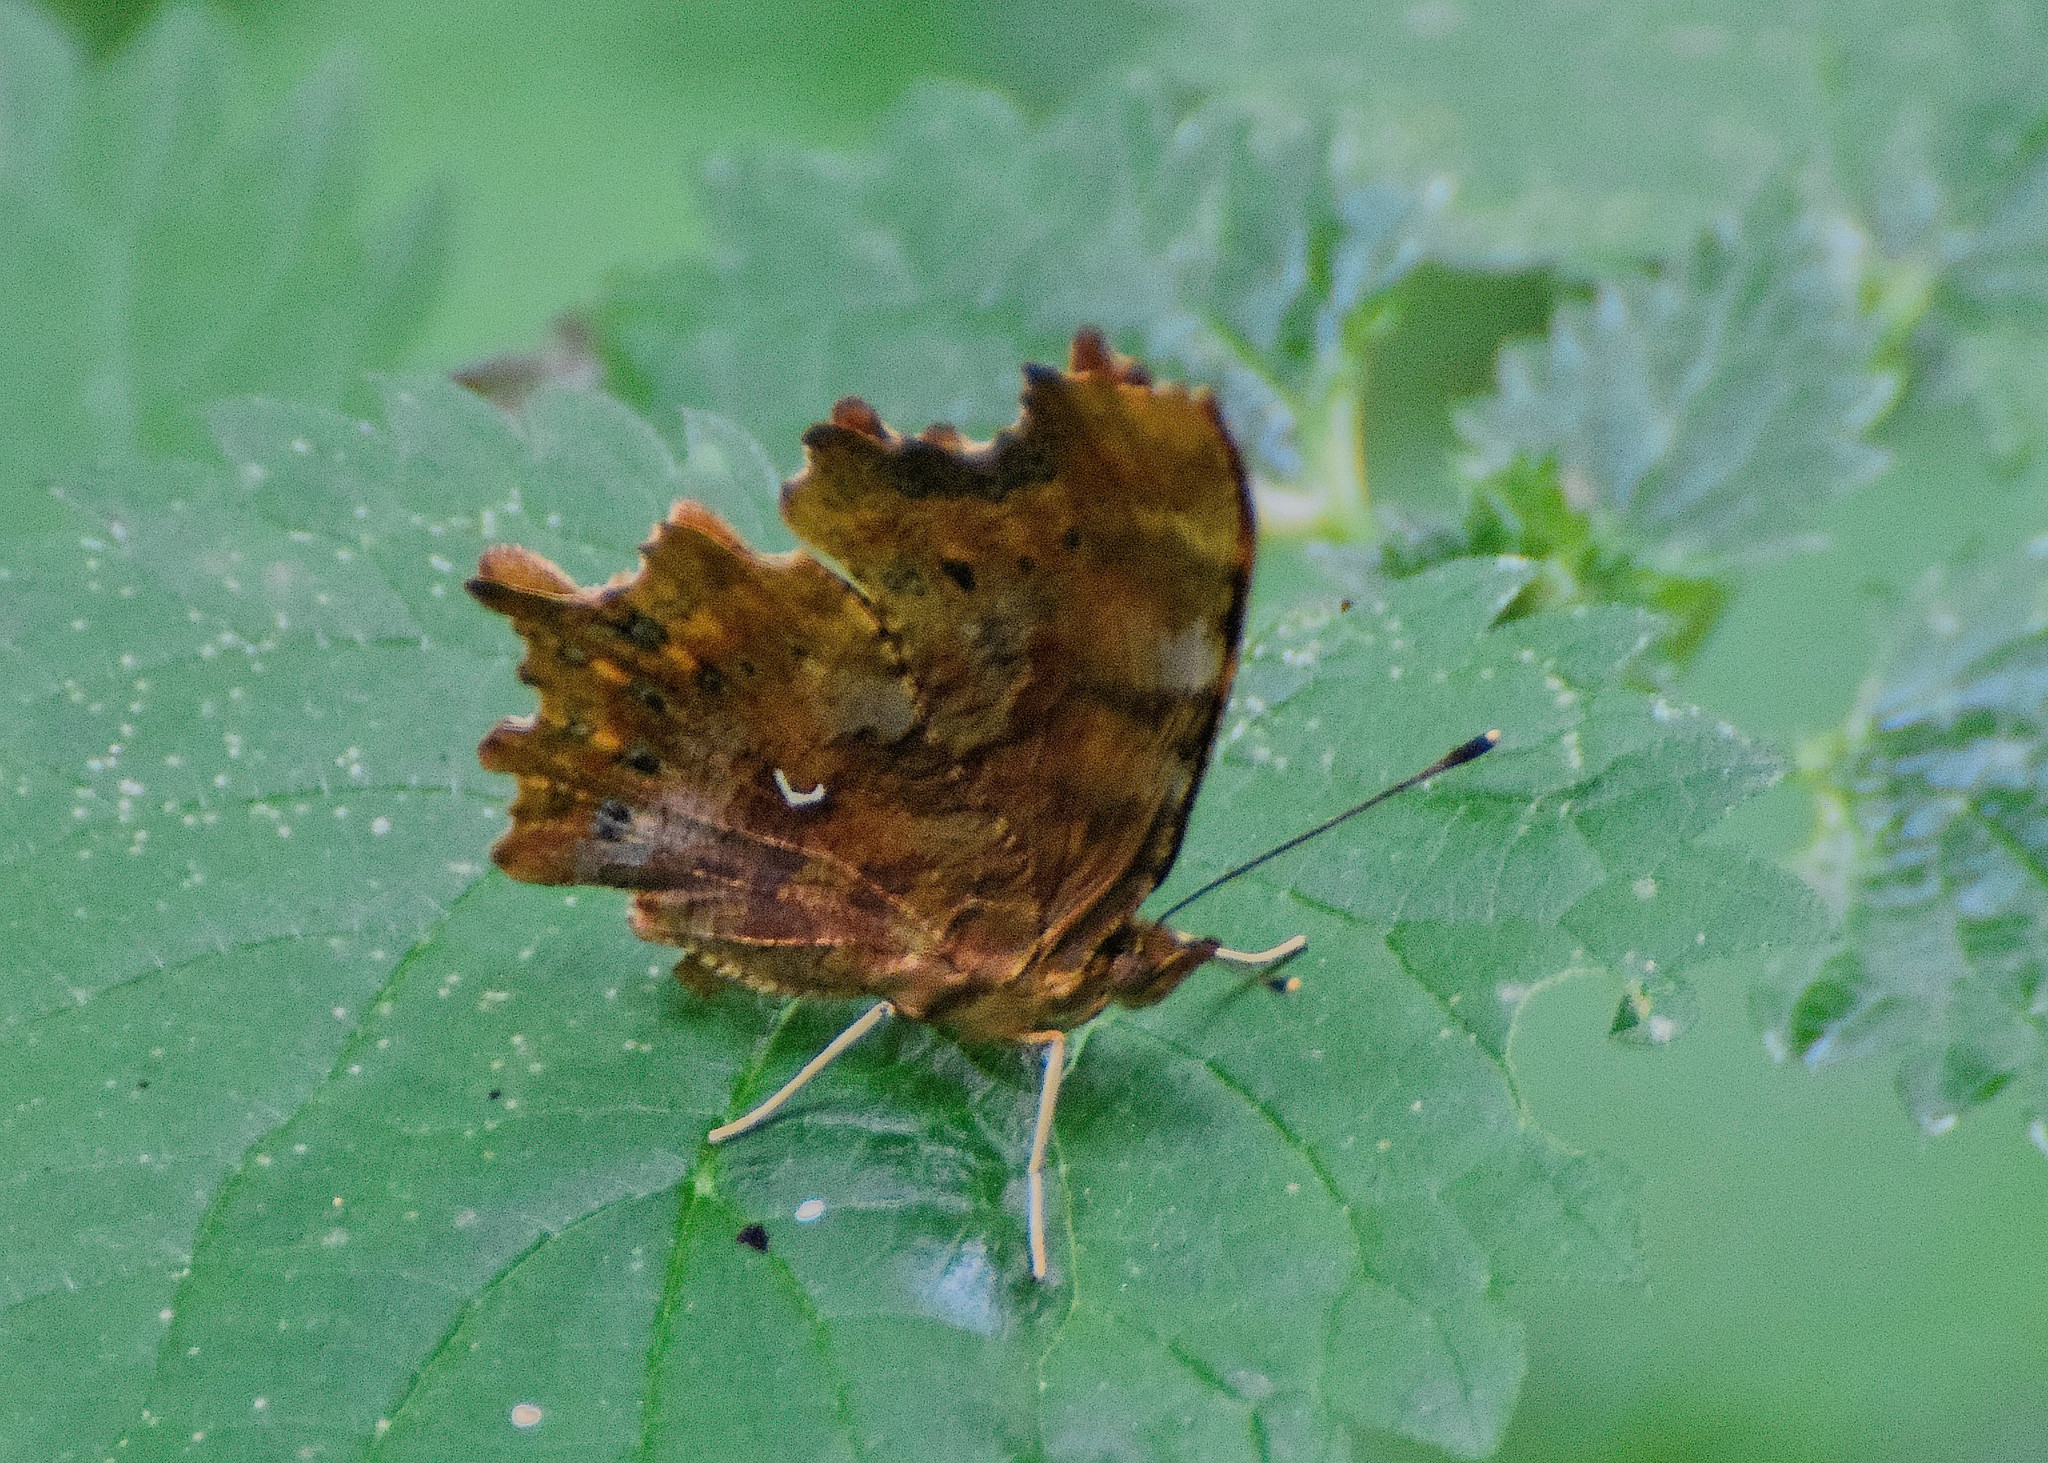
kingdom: Animalia
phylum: Arthropoda
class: Insecta
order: Lepidoptera
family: Nymphalidae
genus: Polygonia
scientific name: Polygonia c-album
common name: Comma
